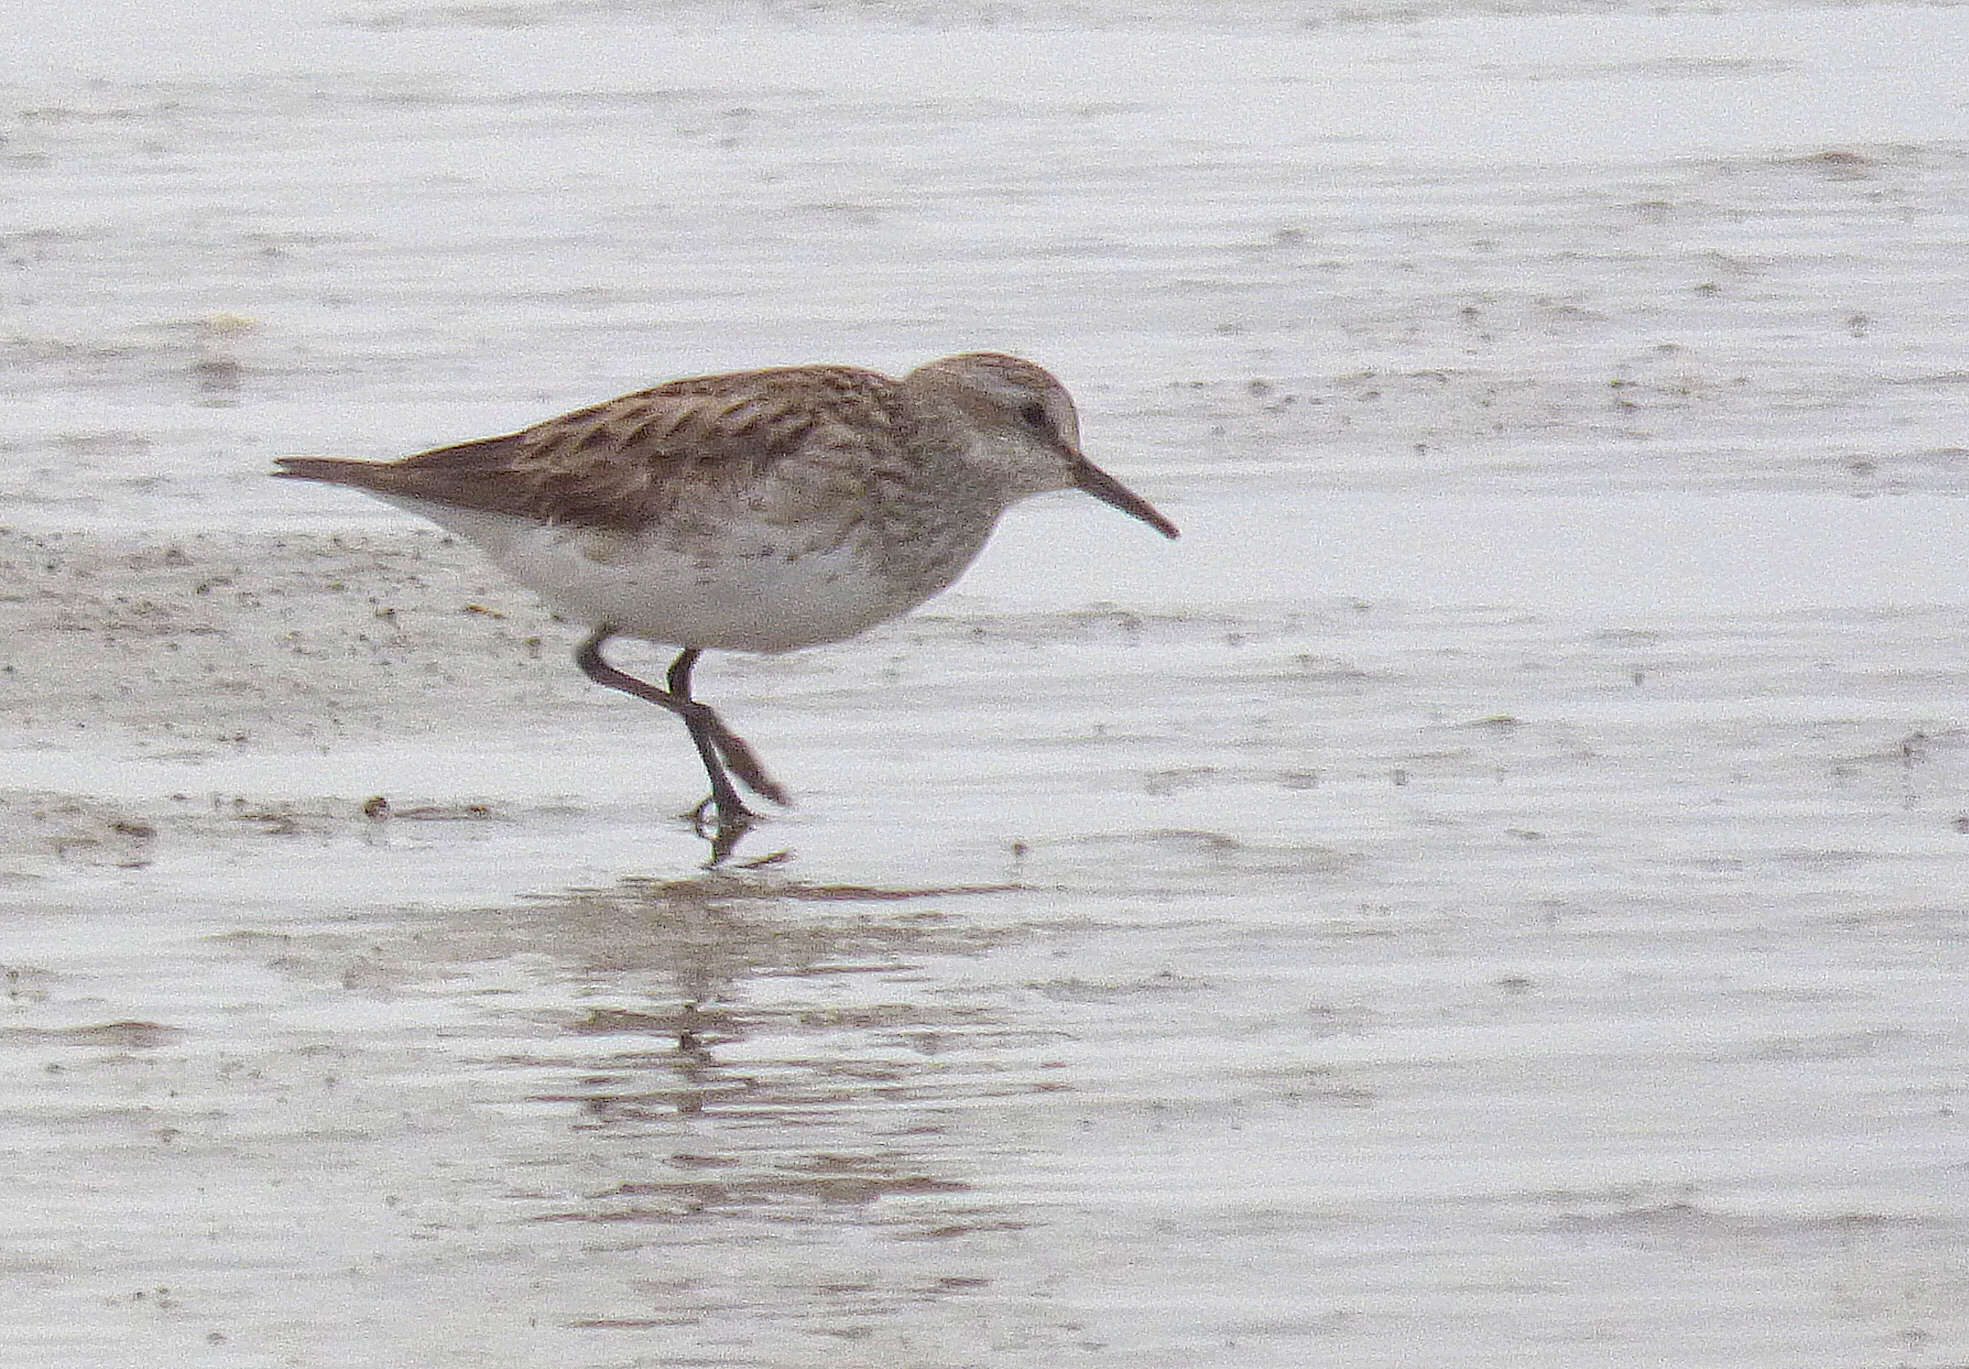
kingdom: Animalia
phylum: Chordata
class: Aves
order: Charadriiformes
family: Scolopacidae
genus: Calidris
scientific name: Calidris fuscicollis
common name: White-rumped sandpiper
